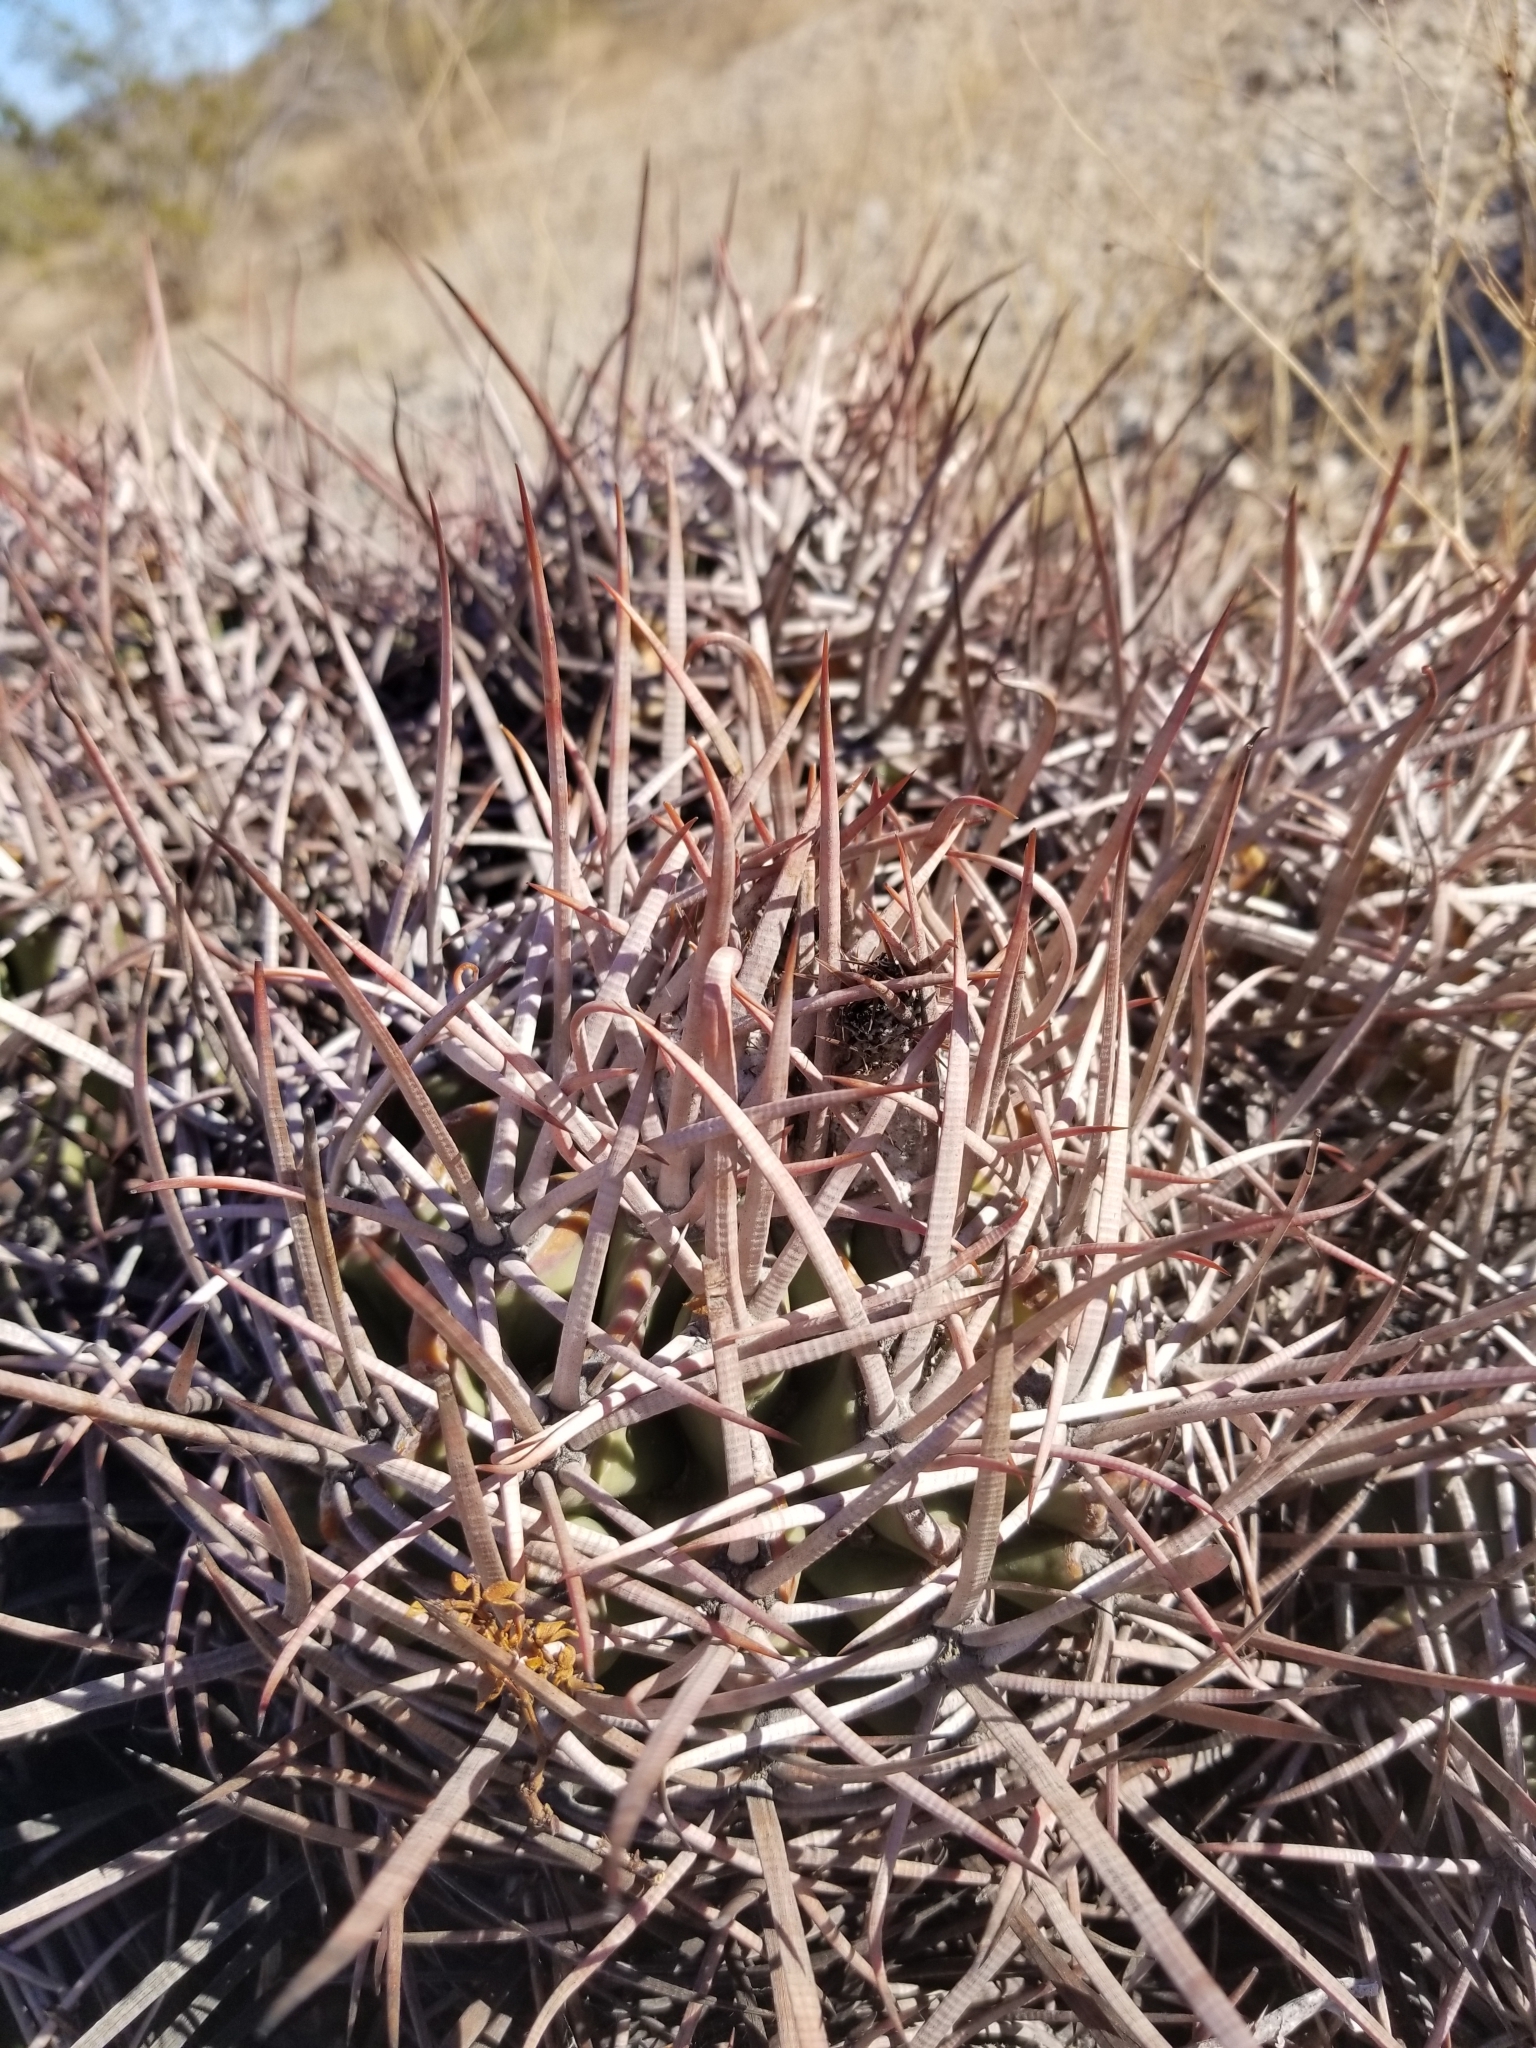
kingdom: Plantae
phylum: Tracheophyta
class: Magnoliopsida
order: Caryophyllales
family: Cactaceae
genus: Echinocactus
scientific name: Echinocactus polycephalus
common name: Cottontop cactus
